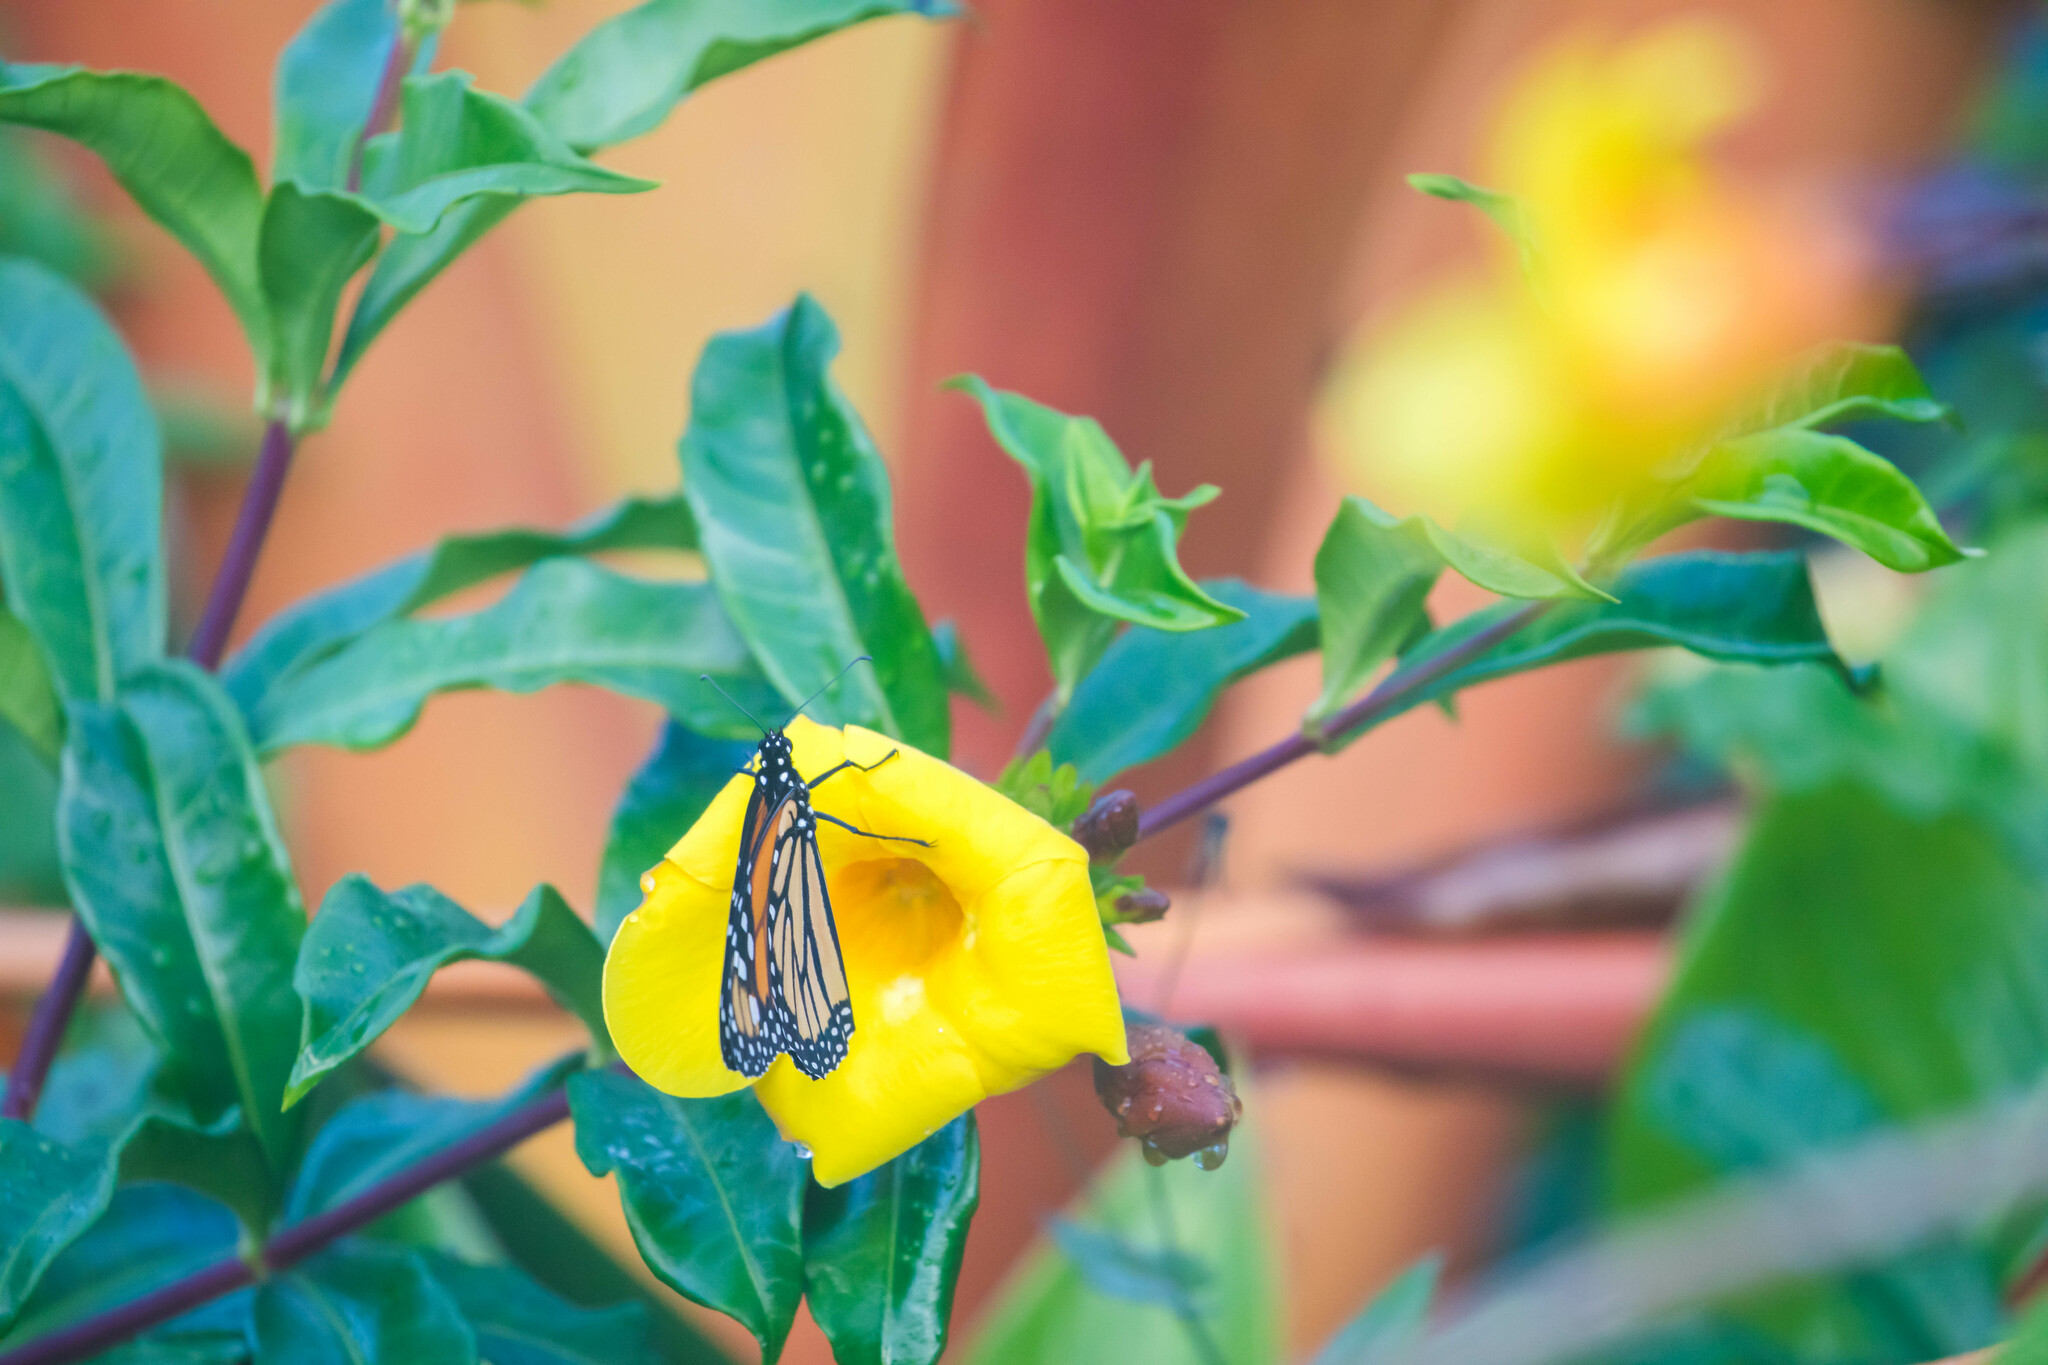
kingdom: Animalia
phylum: Arthropoda
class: Insecta
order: Lepidoptera
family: Nymphalidae
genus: Danaus
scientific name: Danaus plexippus
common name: Monarch
